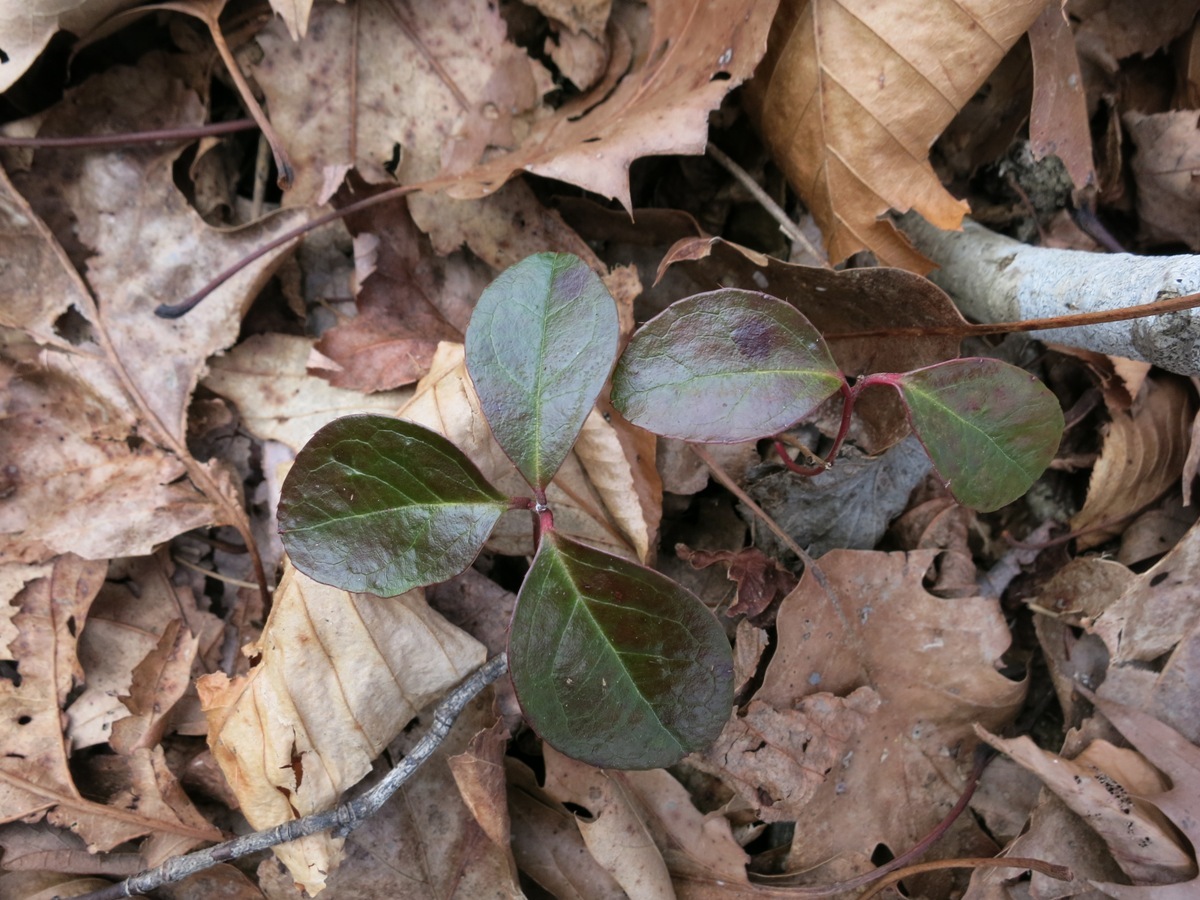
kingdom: Plantae
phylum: Tracheophyta
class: Magnoliopsida
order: Ericales
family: Ericaceae
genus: Gaultheria
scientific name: Gaultheria procumbens
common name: Checkerberry
